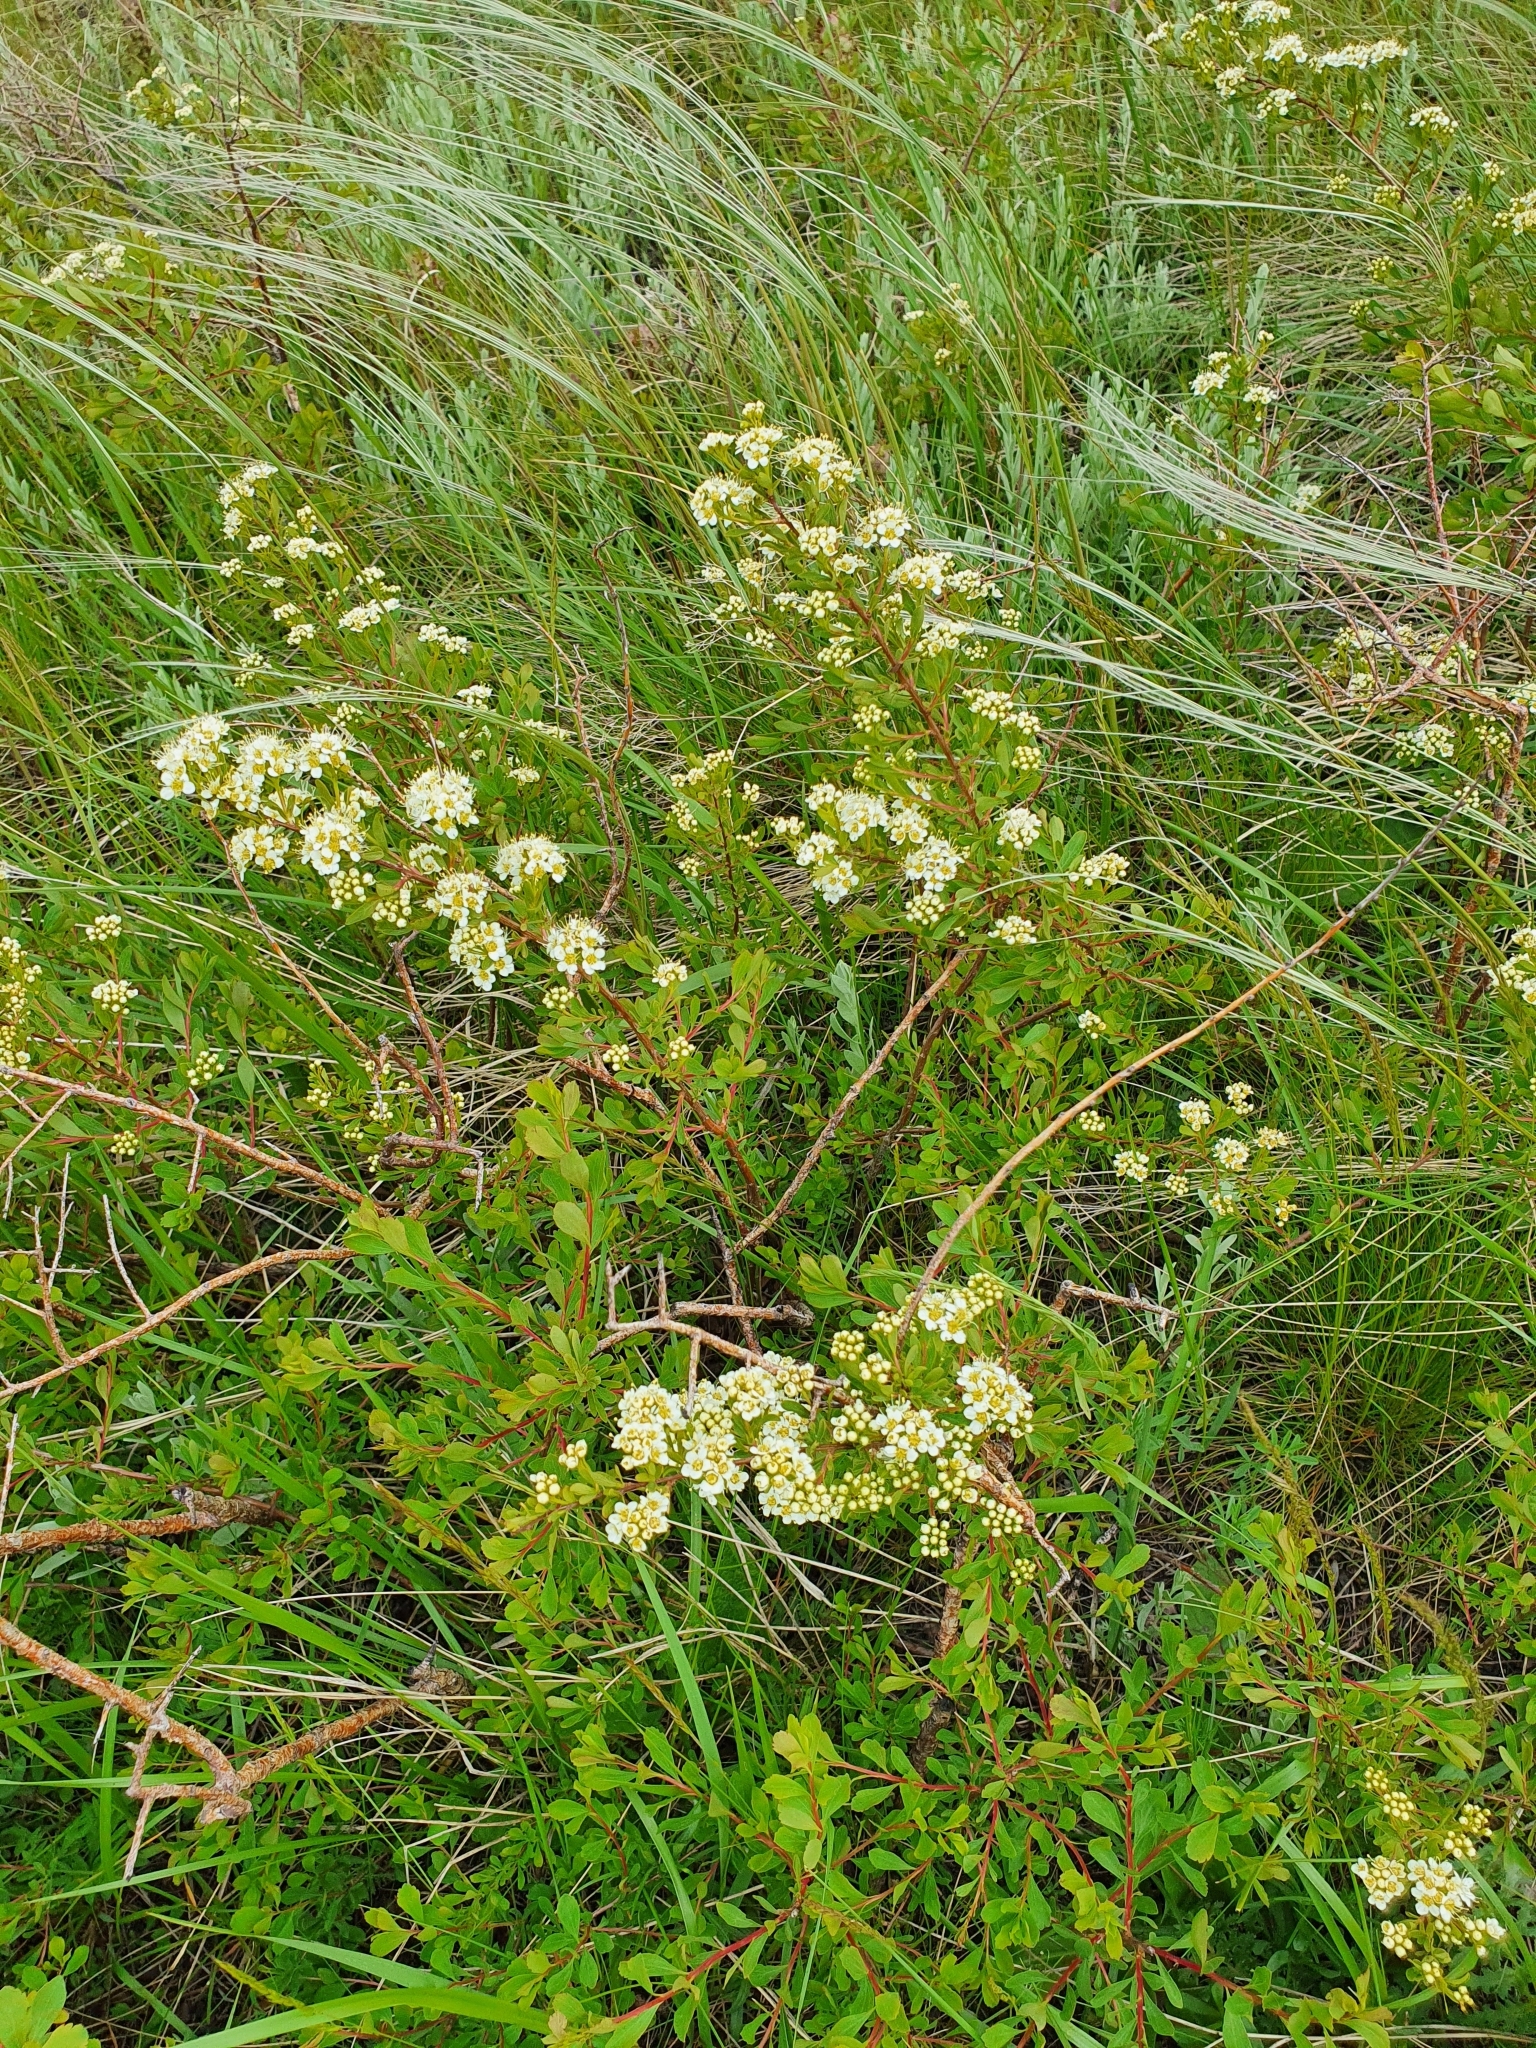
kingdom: Plantae
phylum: Tracheophyta
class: Magnoliopsida
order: Rosales
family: Rosaceae
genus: Spiraea
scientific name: Spiraea crenata
